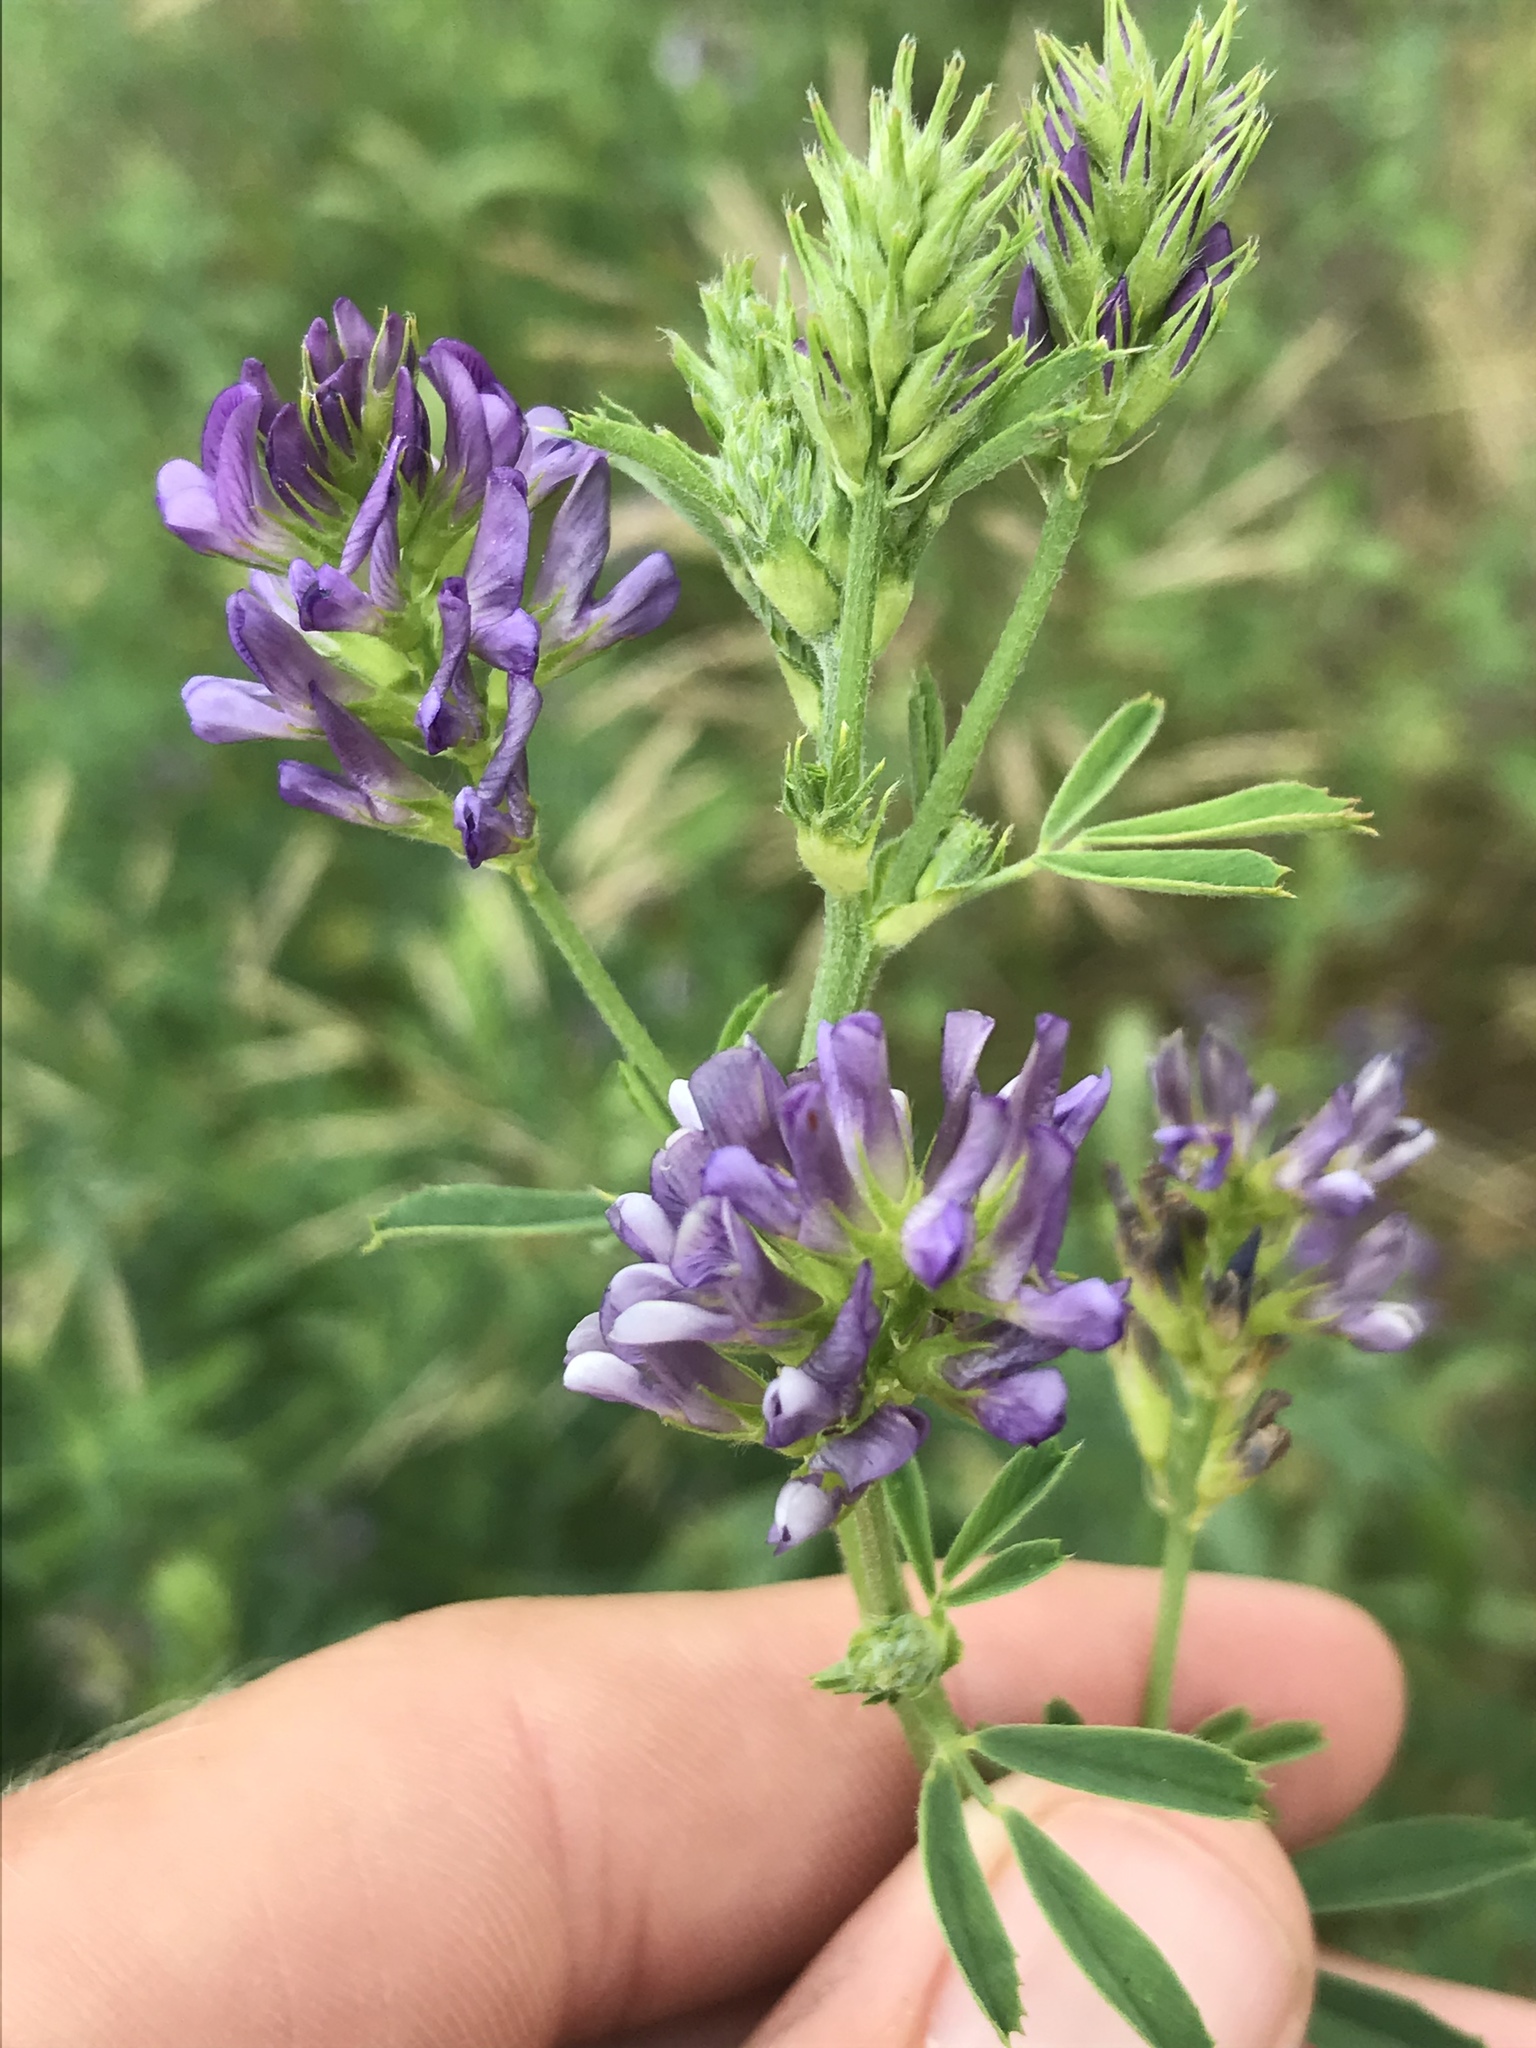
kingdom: Plantae
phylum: Tracheophyta
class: Magnoliopsida
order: Fabales
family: Fabaceae
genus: Medicago
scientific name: Medicago sativa
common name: Alfalfa
